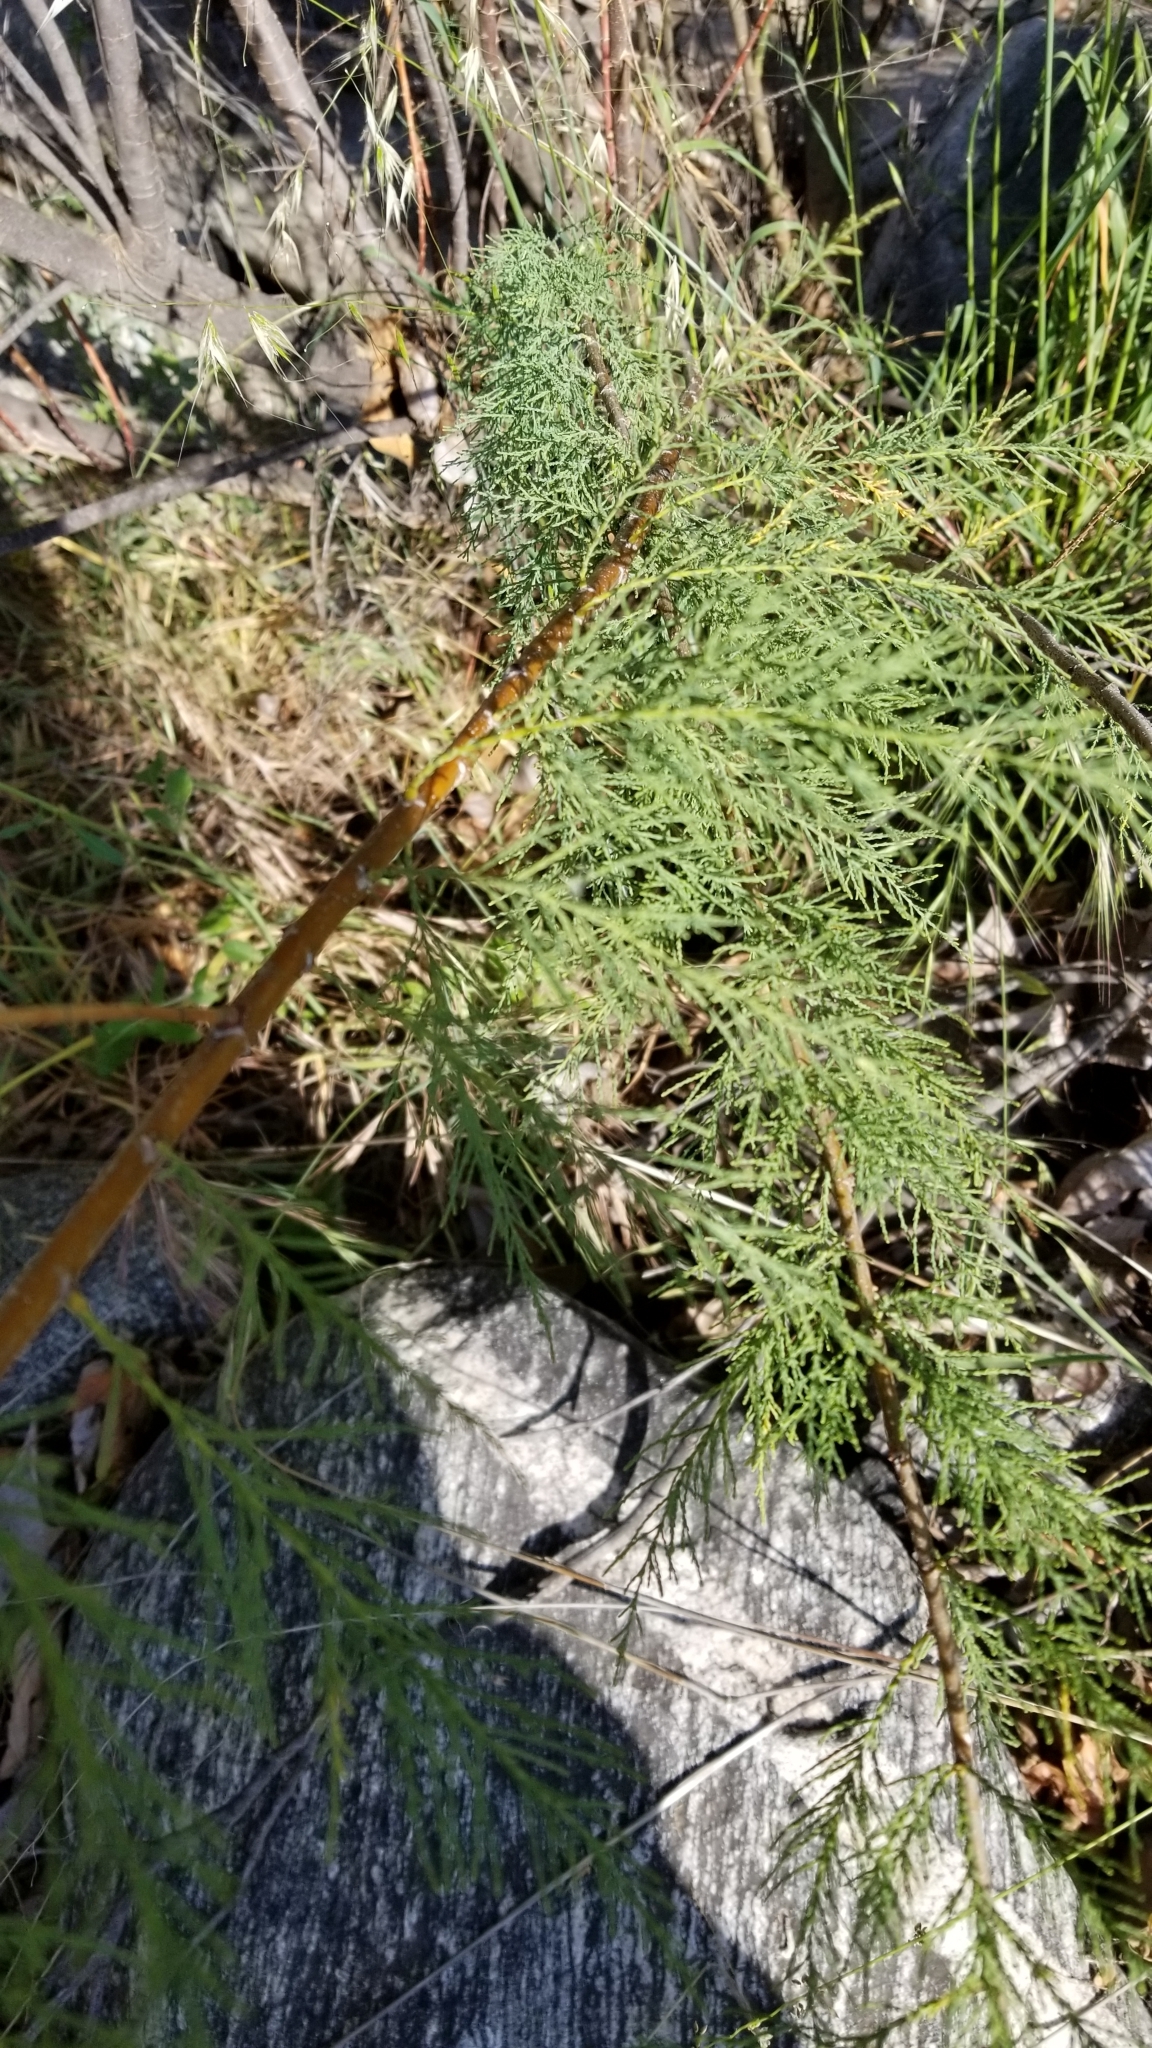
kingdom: Plantae
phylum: Tracheophyta
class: Magnoliopsida
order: Caryophyllales
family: Tamaricaceae
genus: Tamarix
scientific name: Tamarix ramosissima
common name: Pink tamarisk
